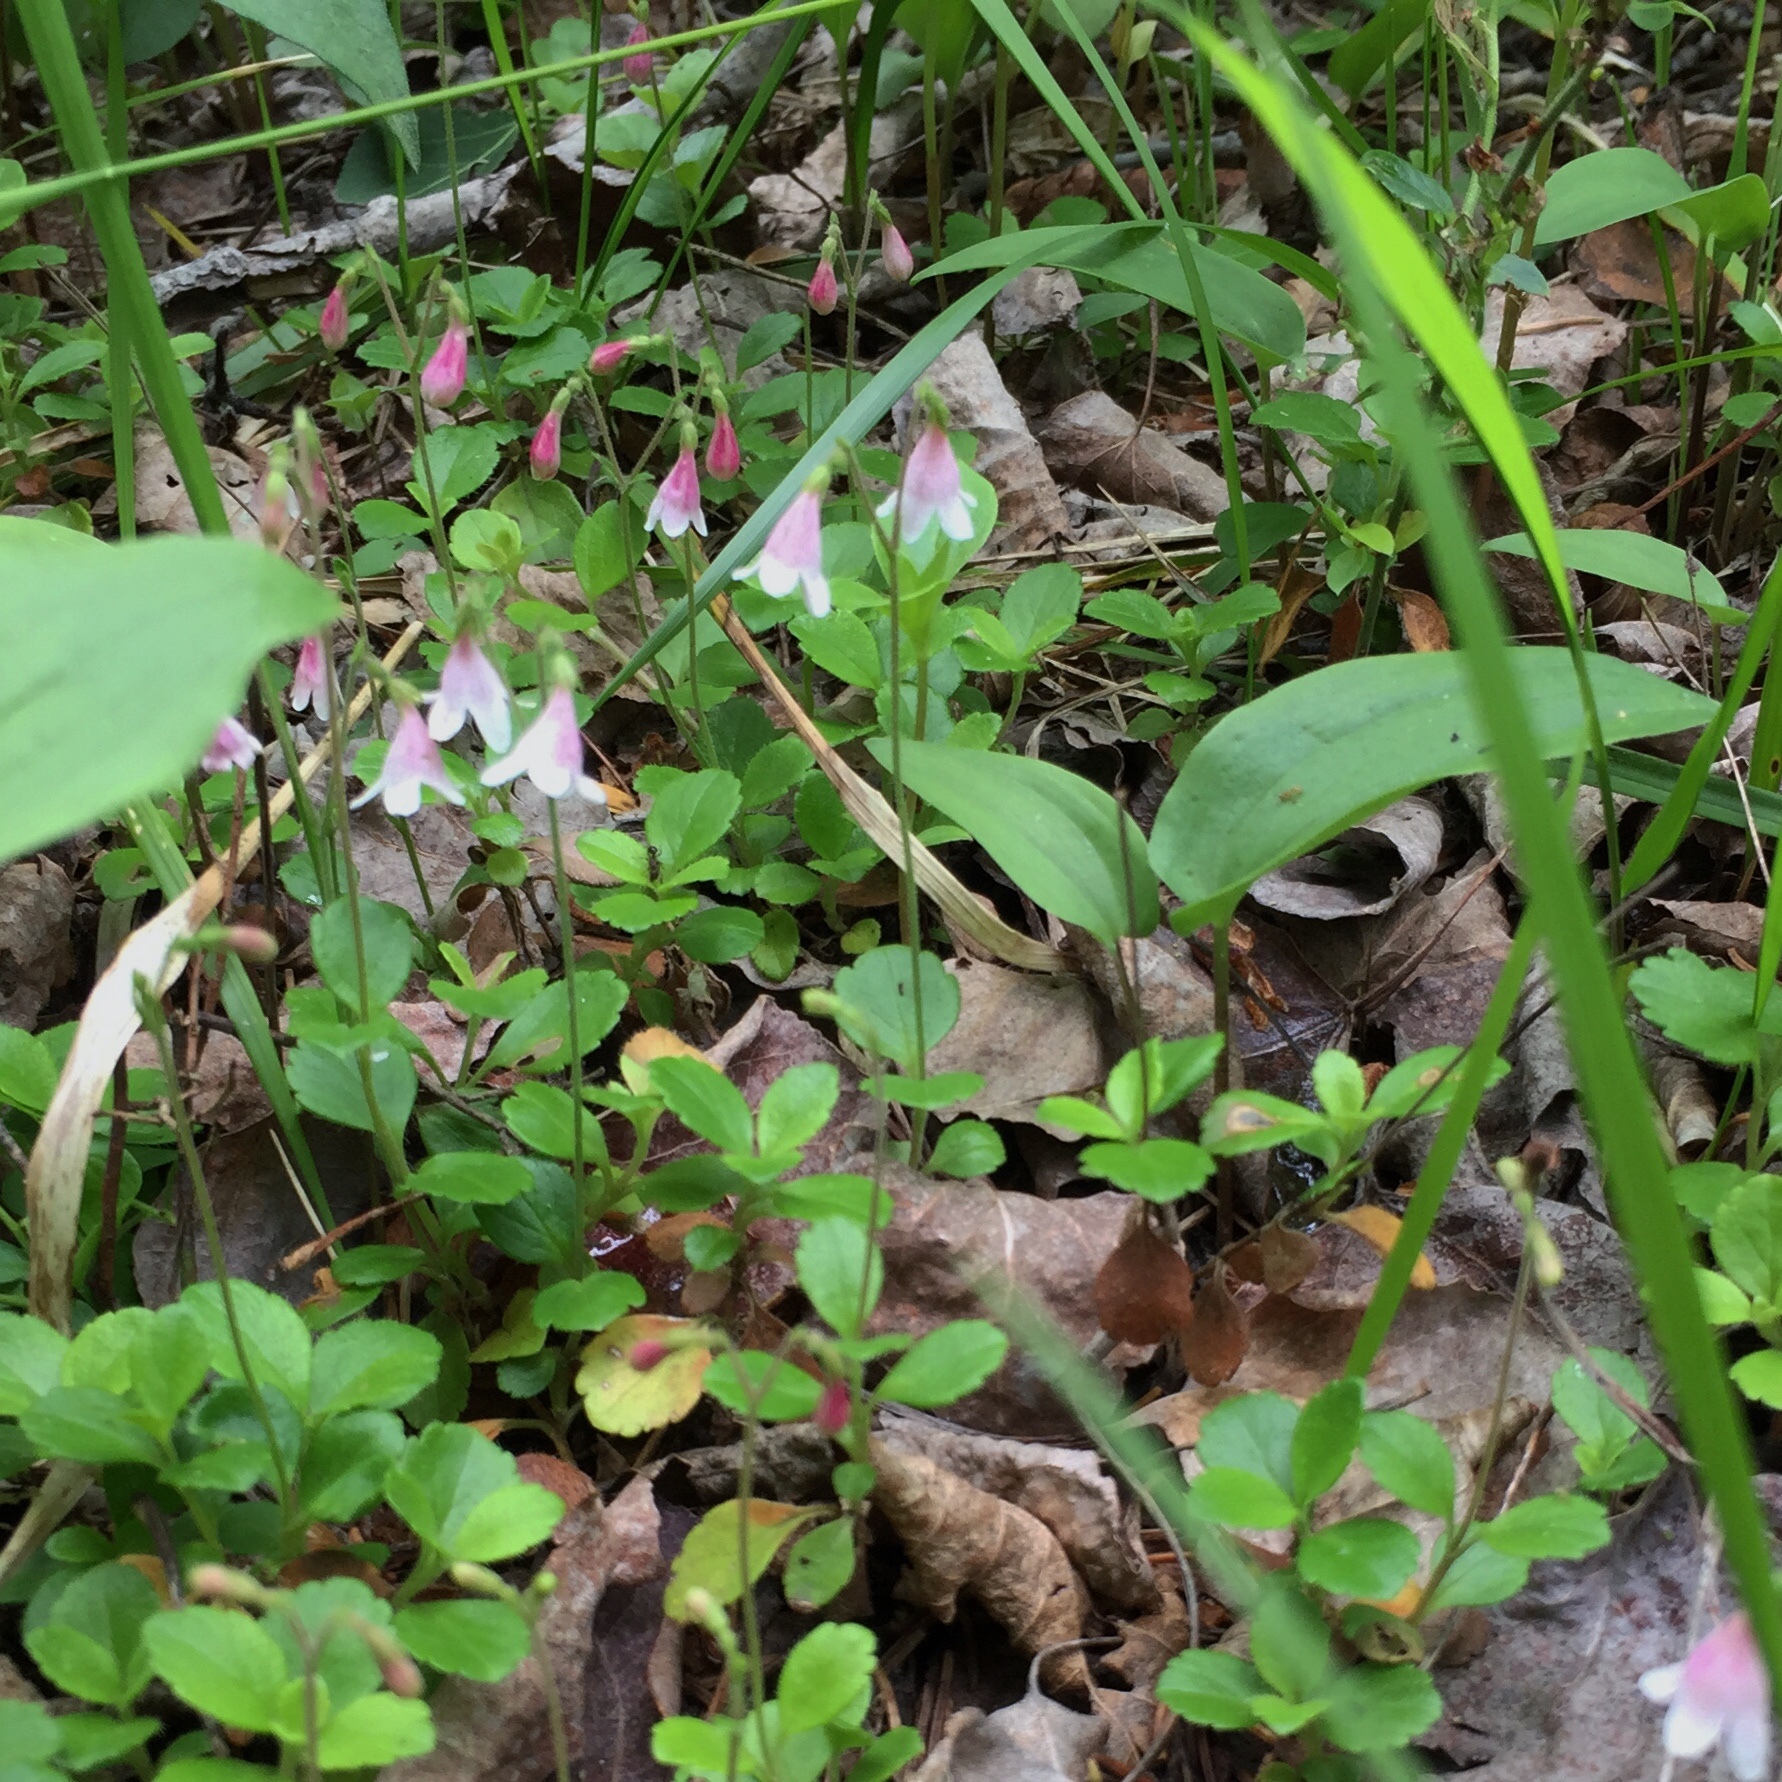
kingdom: Plantae
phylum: Tracheophyta
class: Magnoliopsida
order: Dipsacales
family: Caprifoliaceae
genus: Linnaea
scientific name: Linnaea borealis
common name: Twinflower
